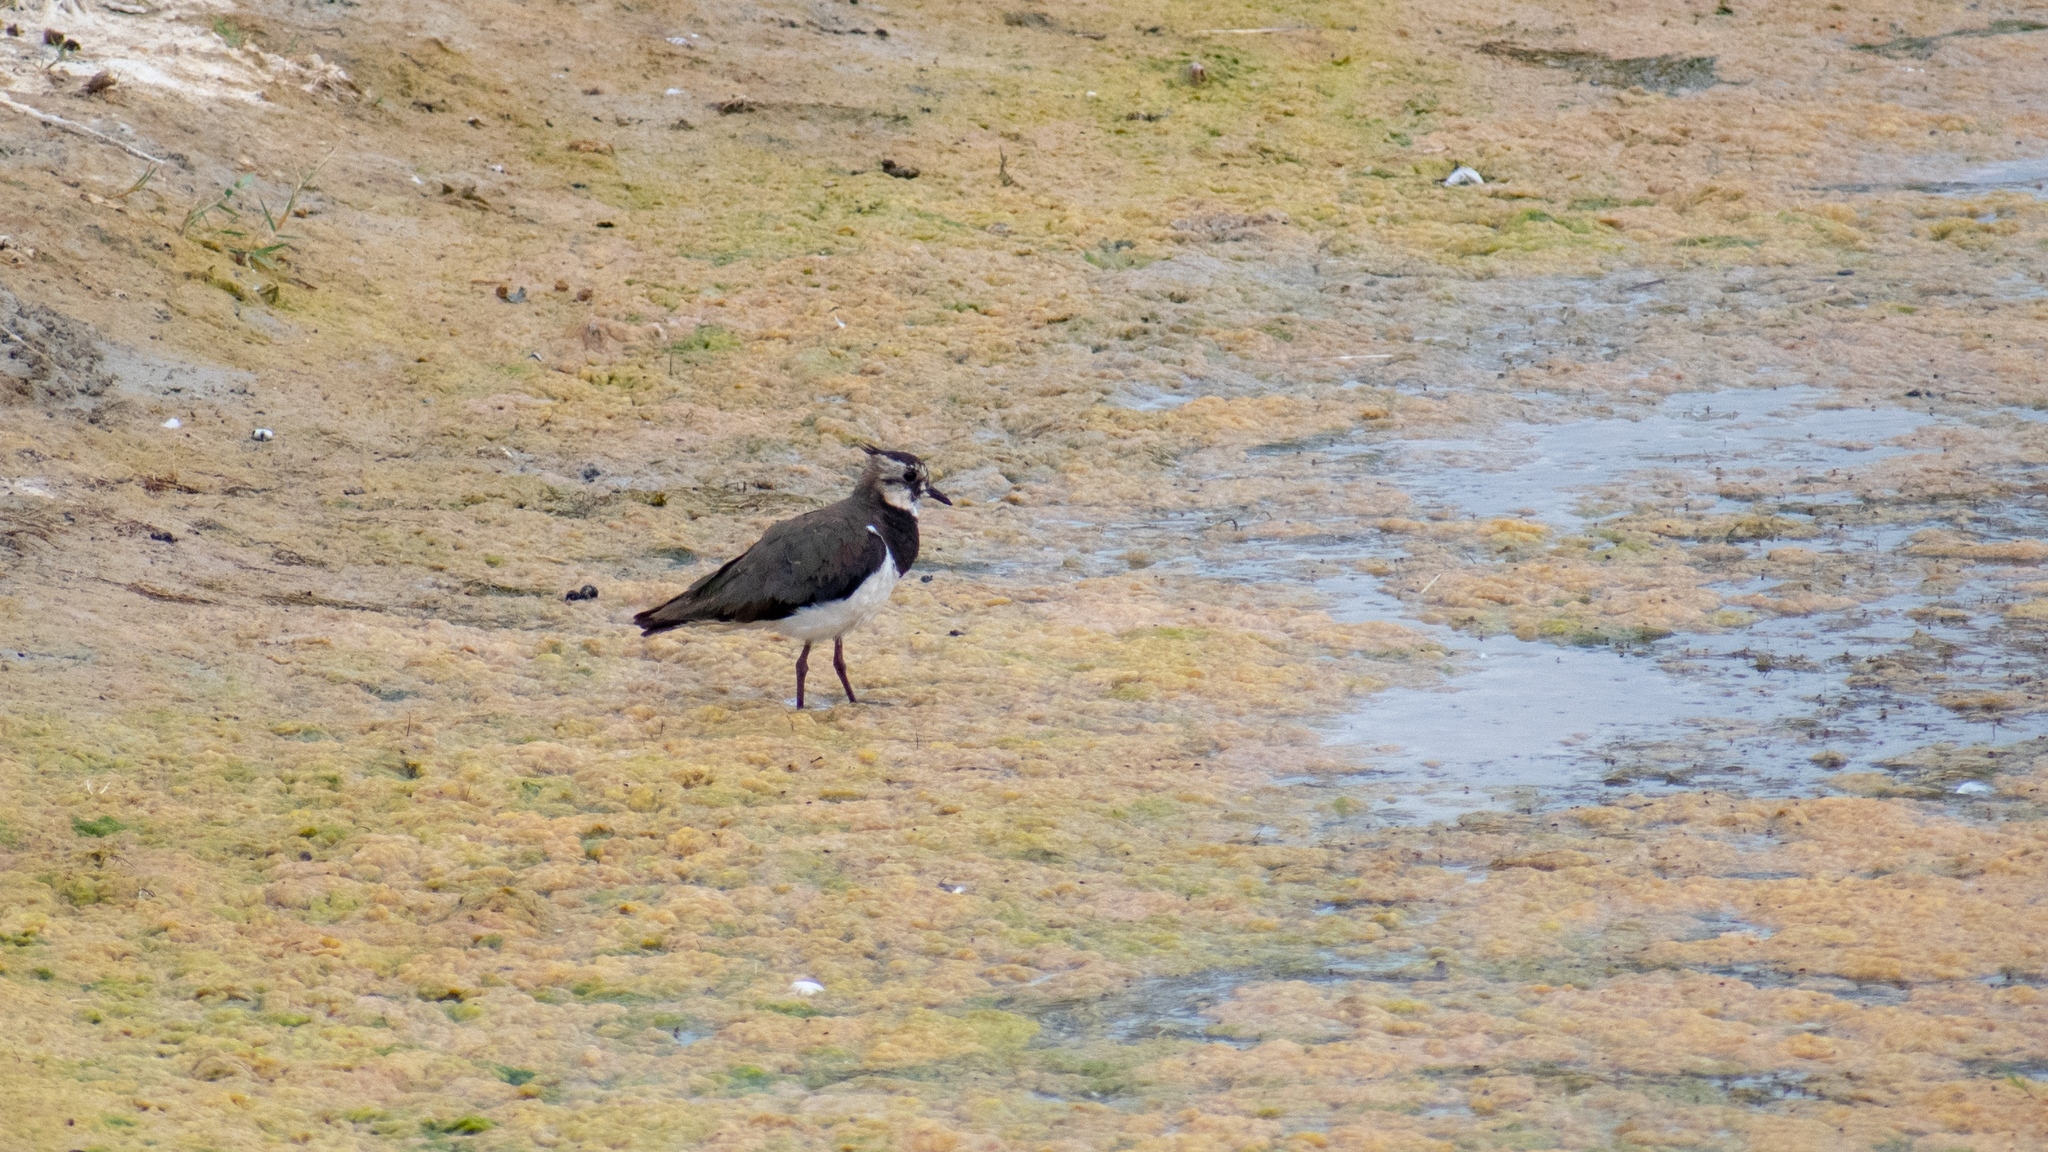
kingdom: Animalia
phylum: Chordata
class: Aves
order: Charadriiformes
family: Charadriidae
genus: Vanellus
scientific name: Vanellus vanellus
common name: Northern lapwing
